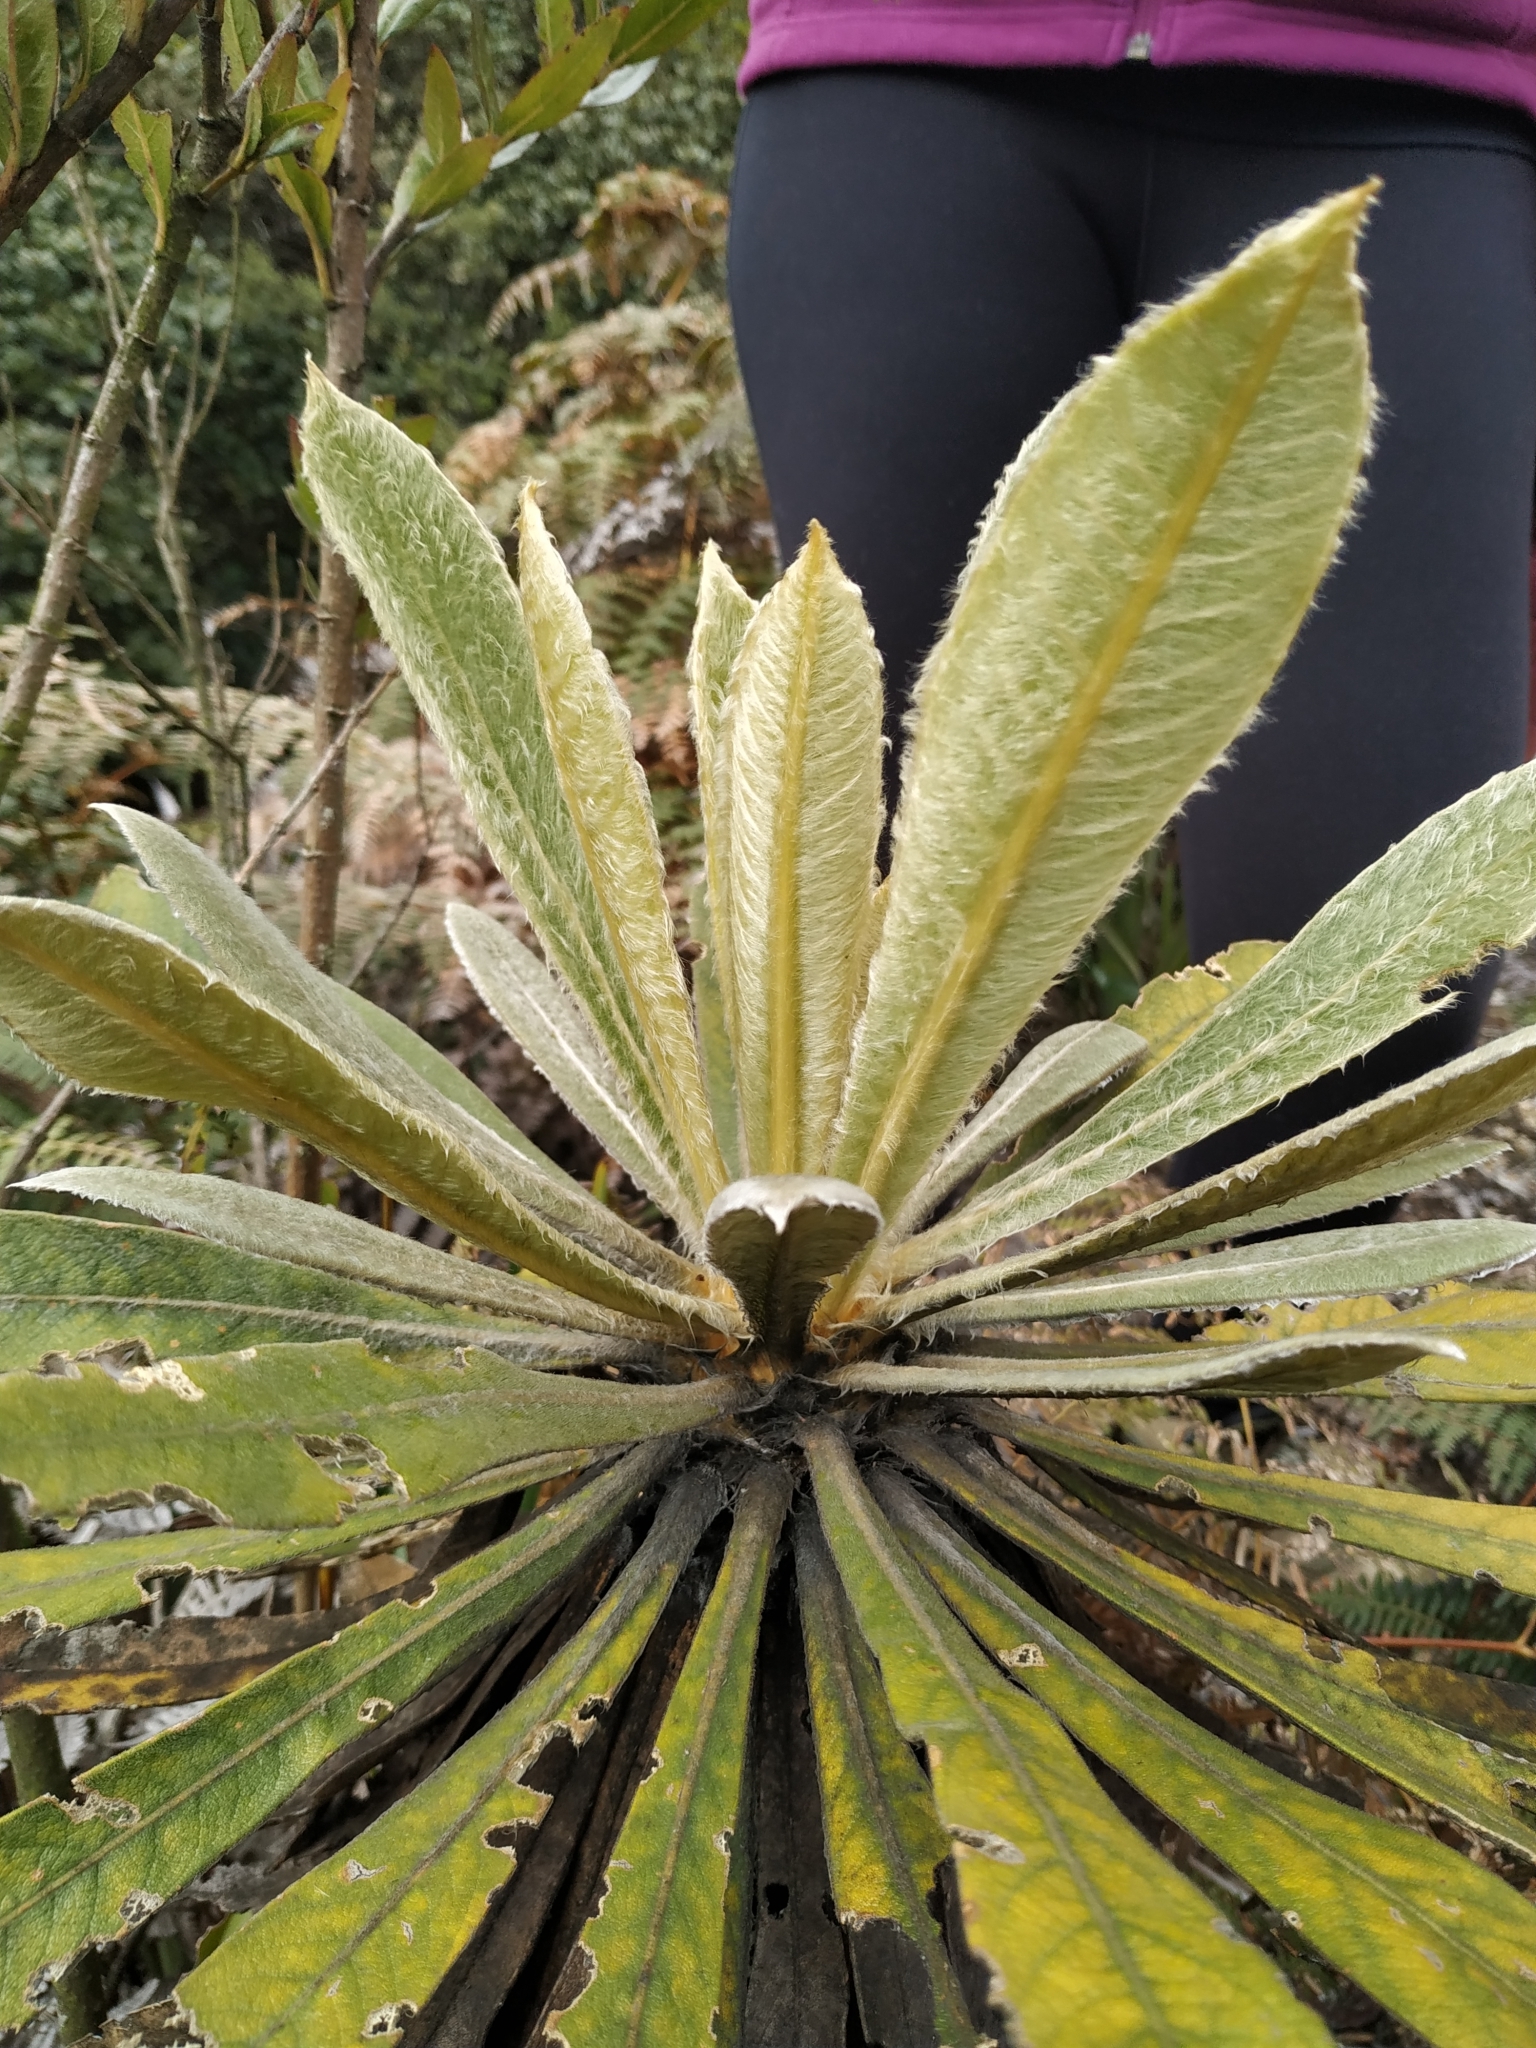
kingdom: Plantae
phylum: Tracheophyta
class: Magnoliopsida
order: Asterales
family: Asteraceae
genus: Espeletia
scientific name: Espeletia corymbosa
